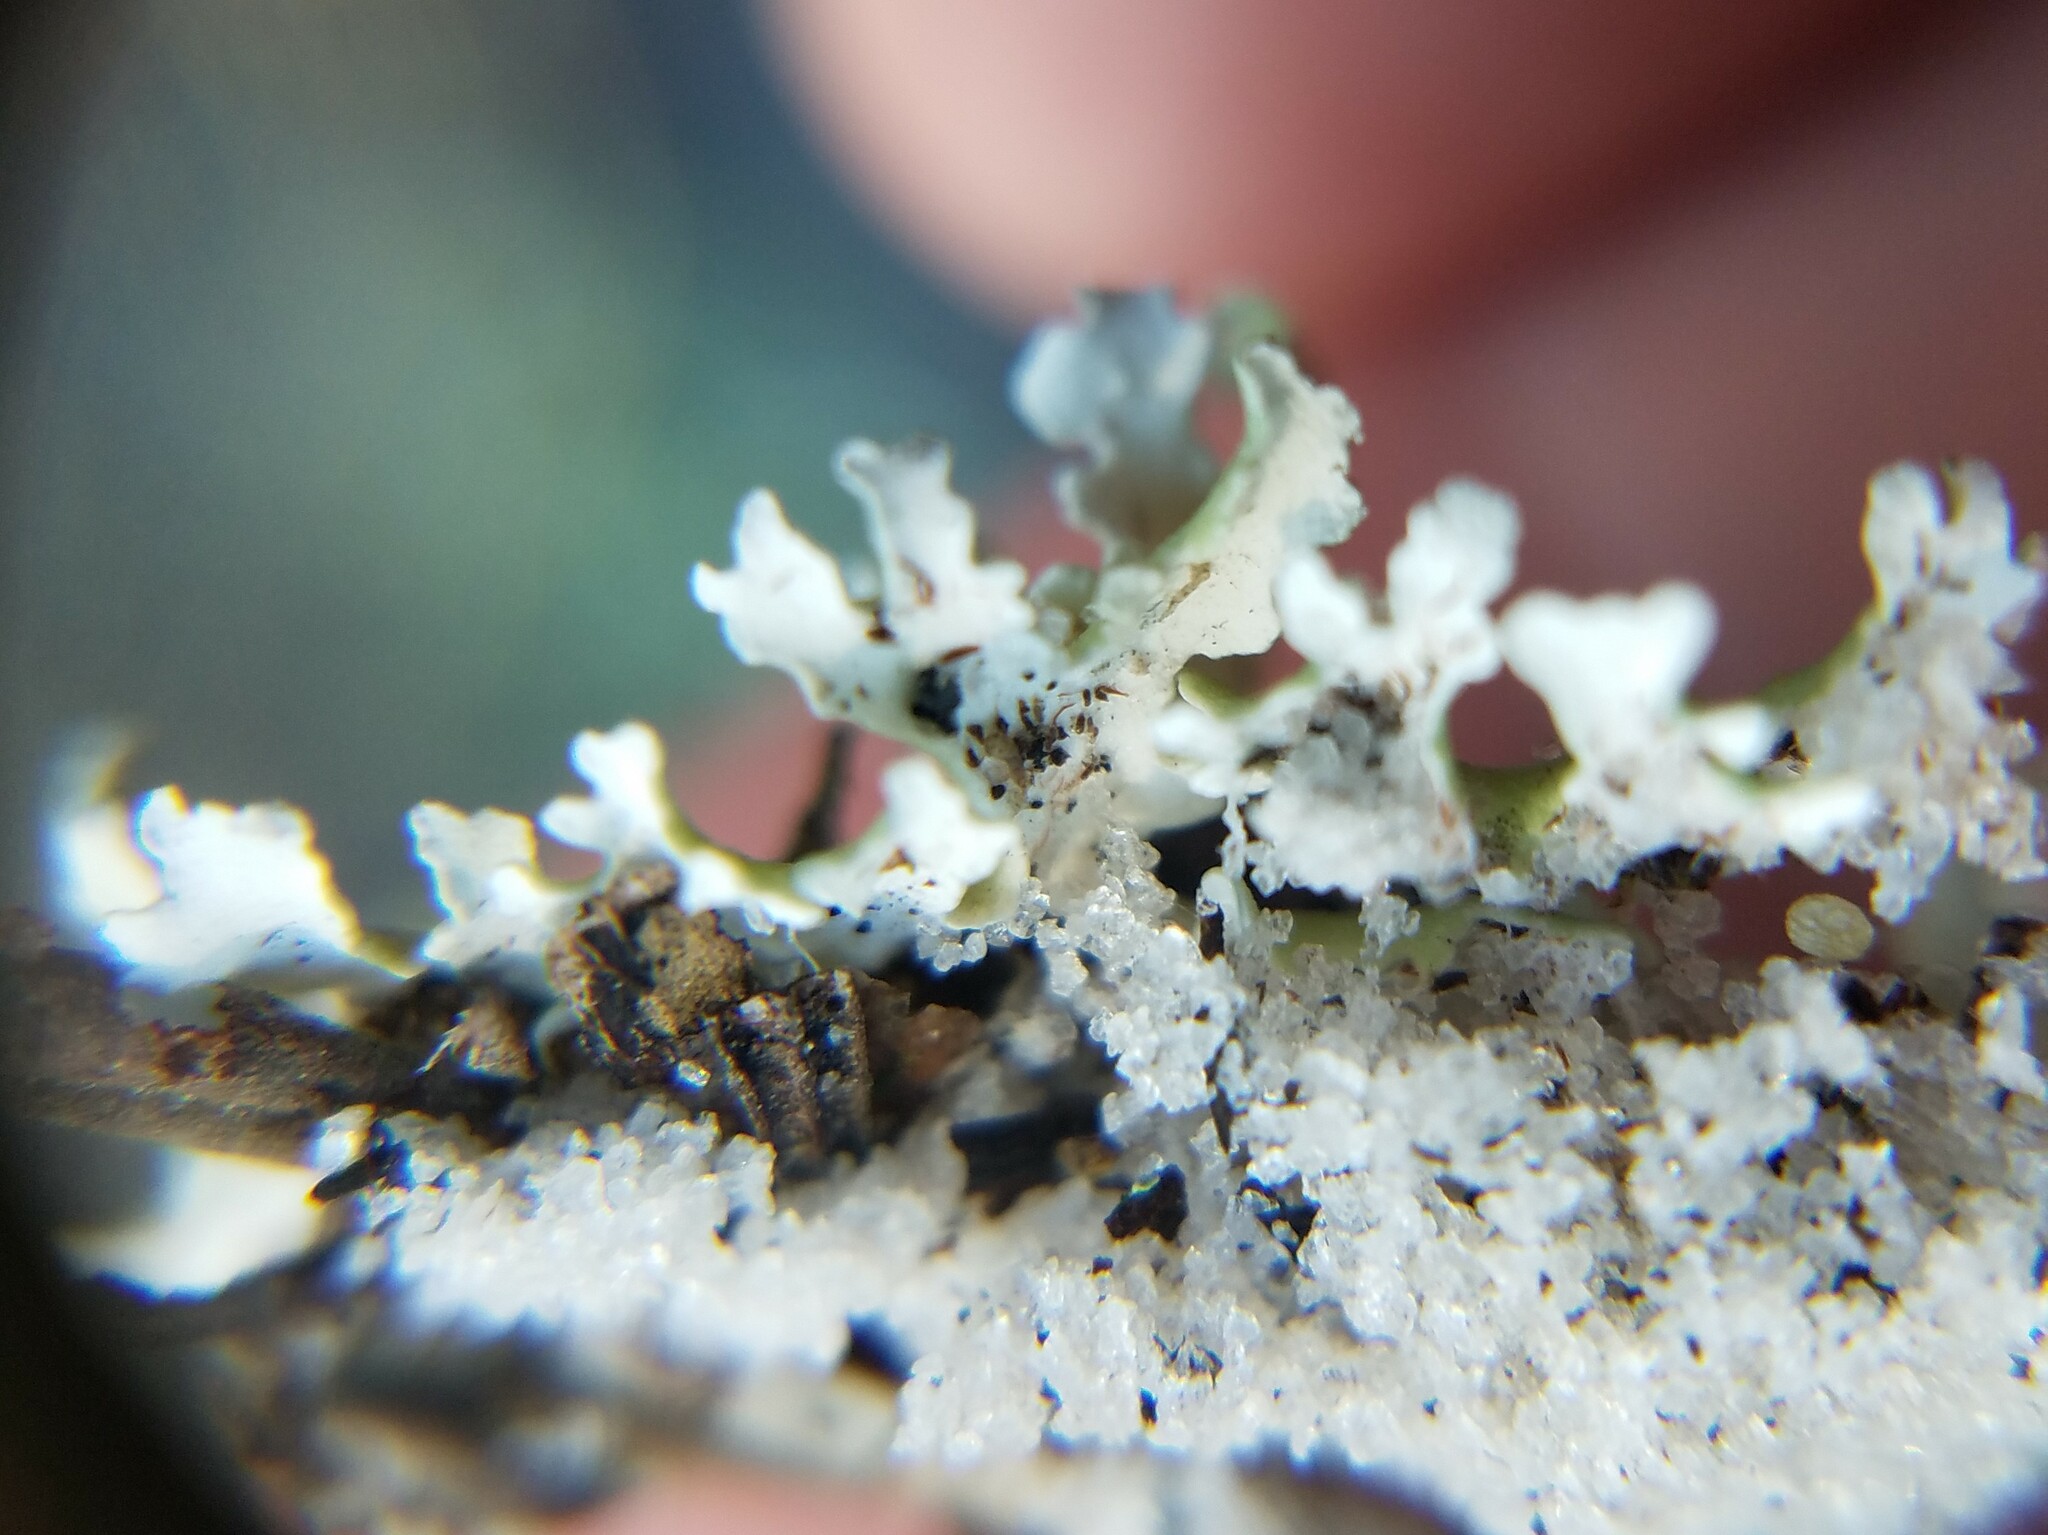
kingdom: Fungi
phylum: Ascomycota
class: Lecanoromycetes
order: Lecanorales
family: Cladoniaceae
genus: Cladonia
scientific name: Cladonia prostrata
